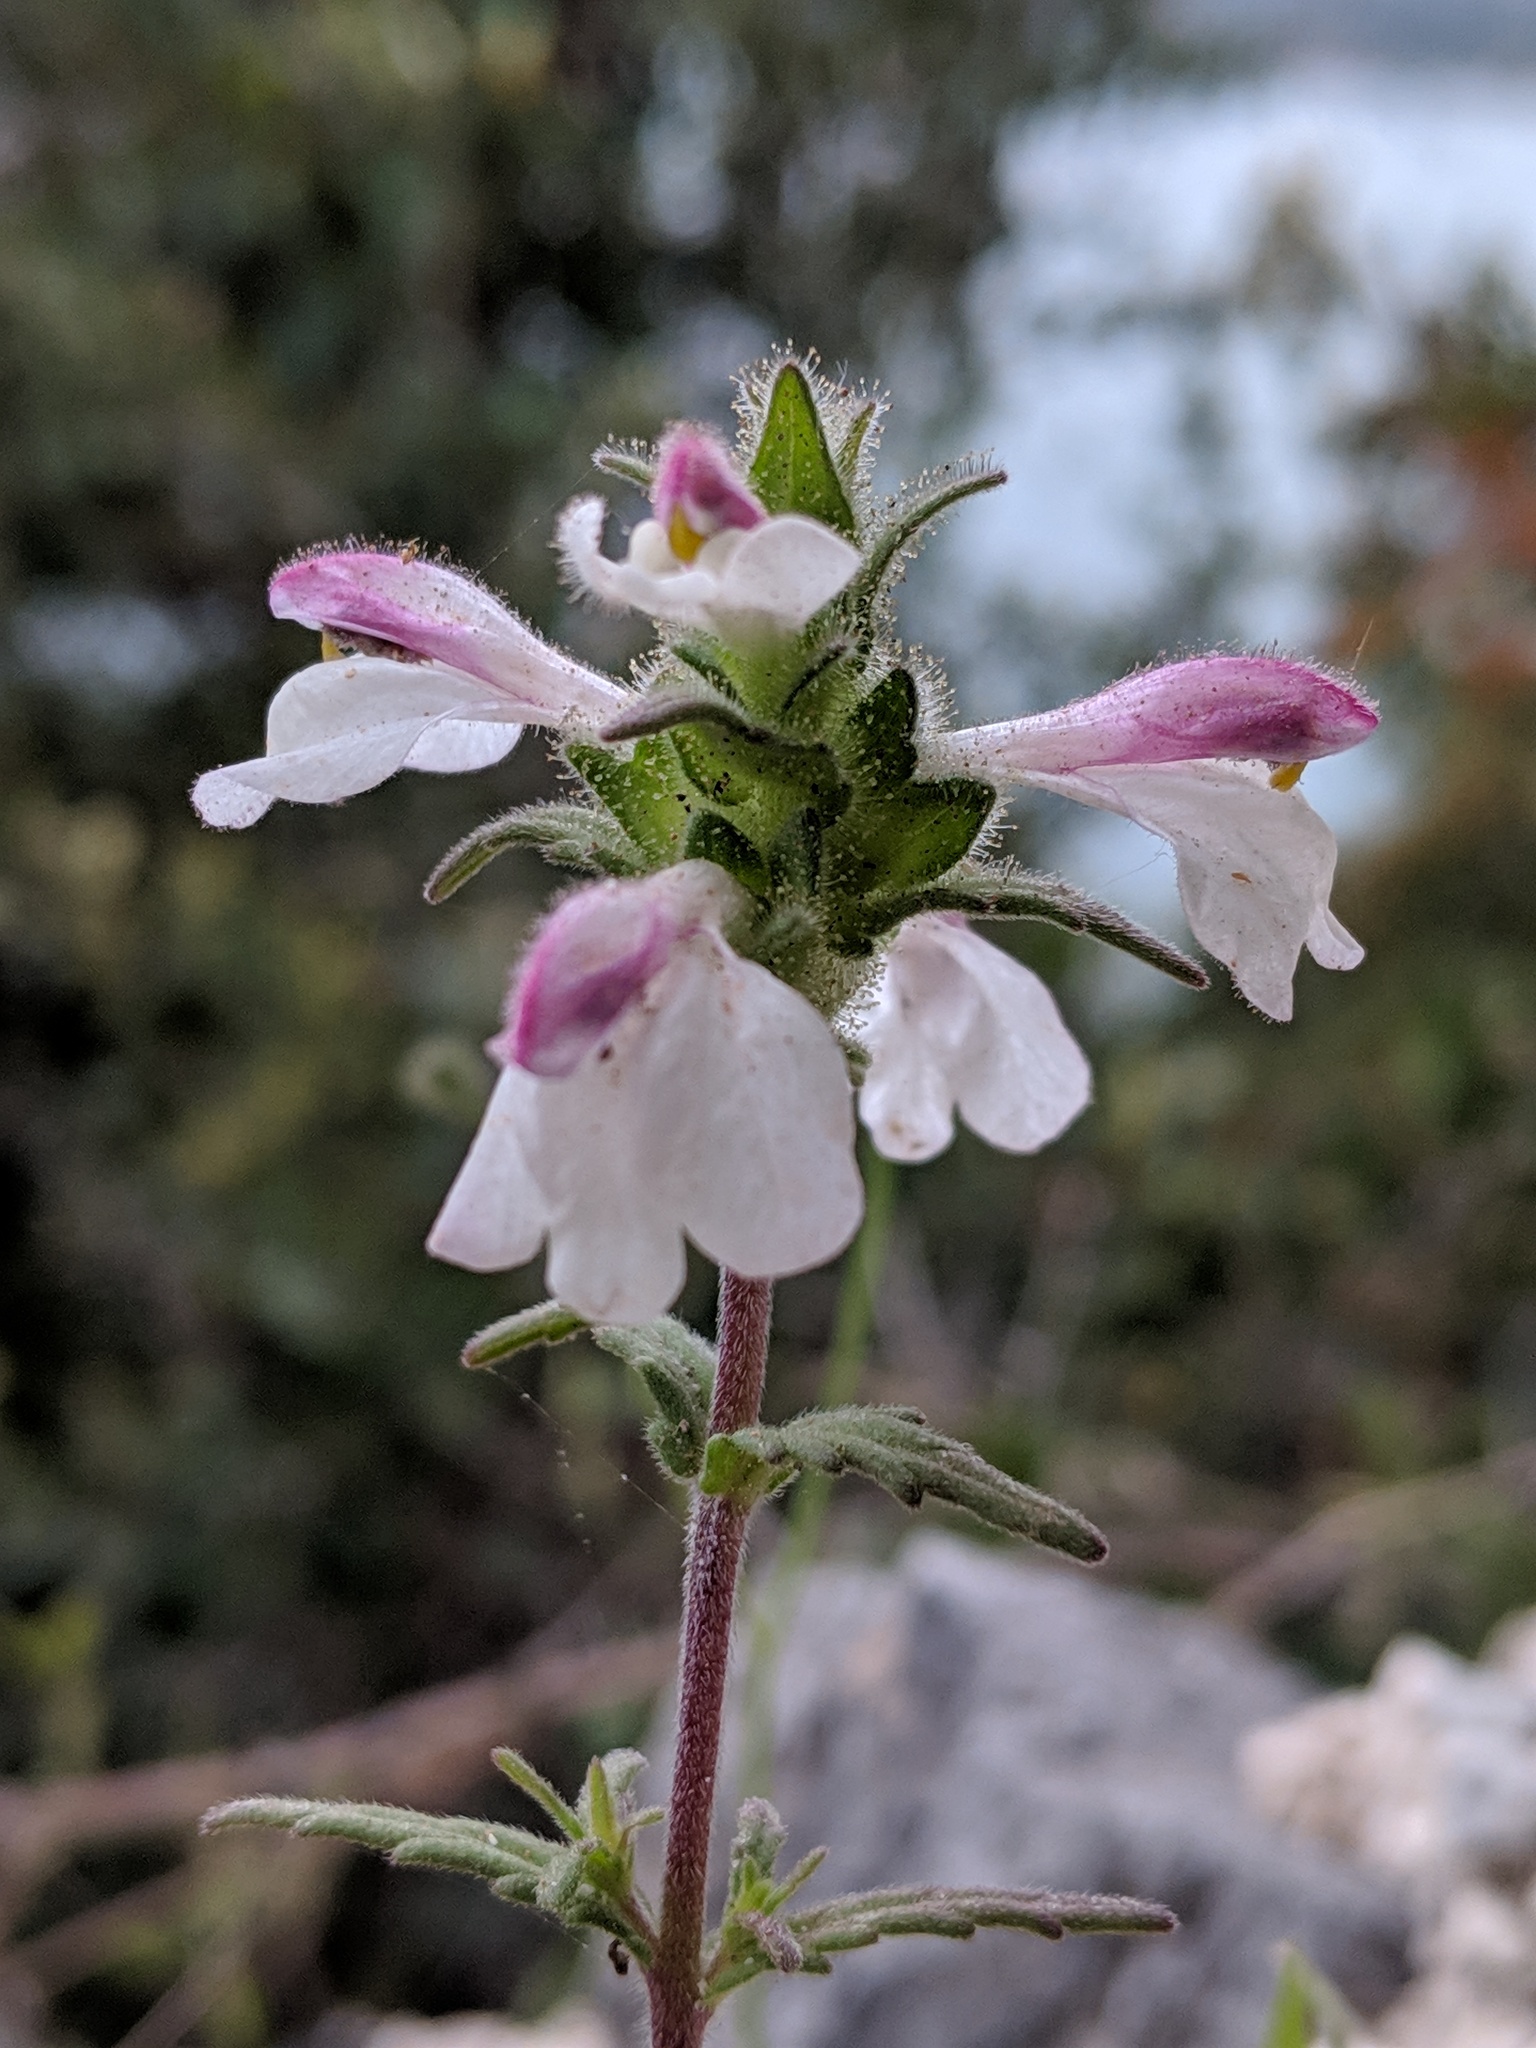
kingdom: Plantae
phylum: Tracheophyta
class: Magnoliopsida
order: Lamiales
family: Orobanchaceae
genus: Bellardia
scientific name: Bellardia trixago
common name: Mediterranean lineseed
